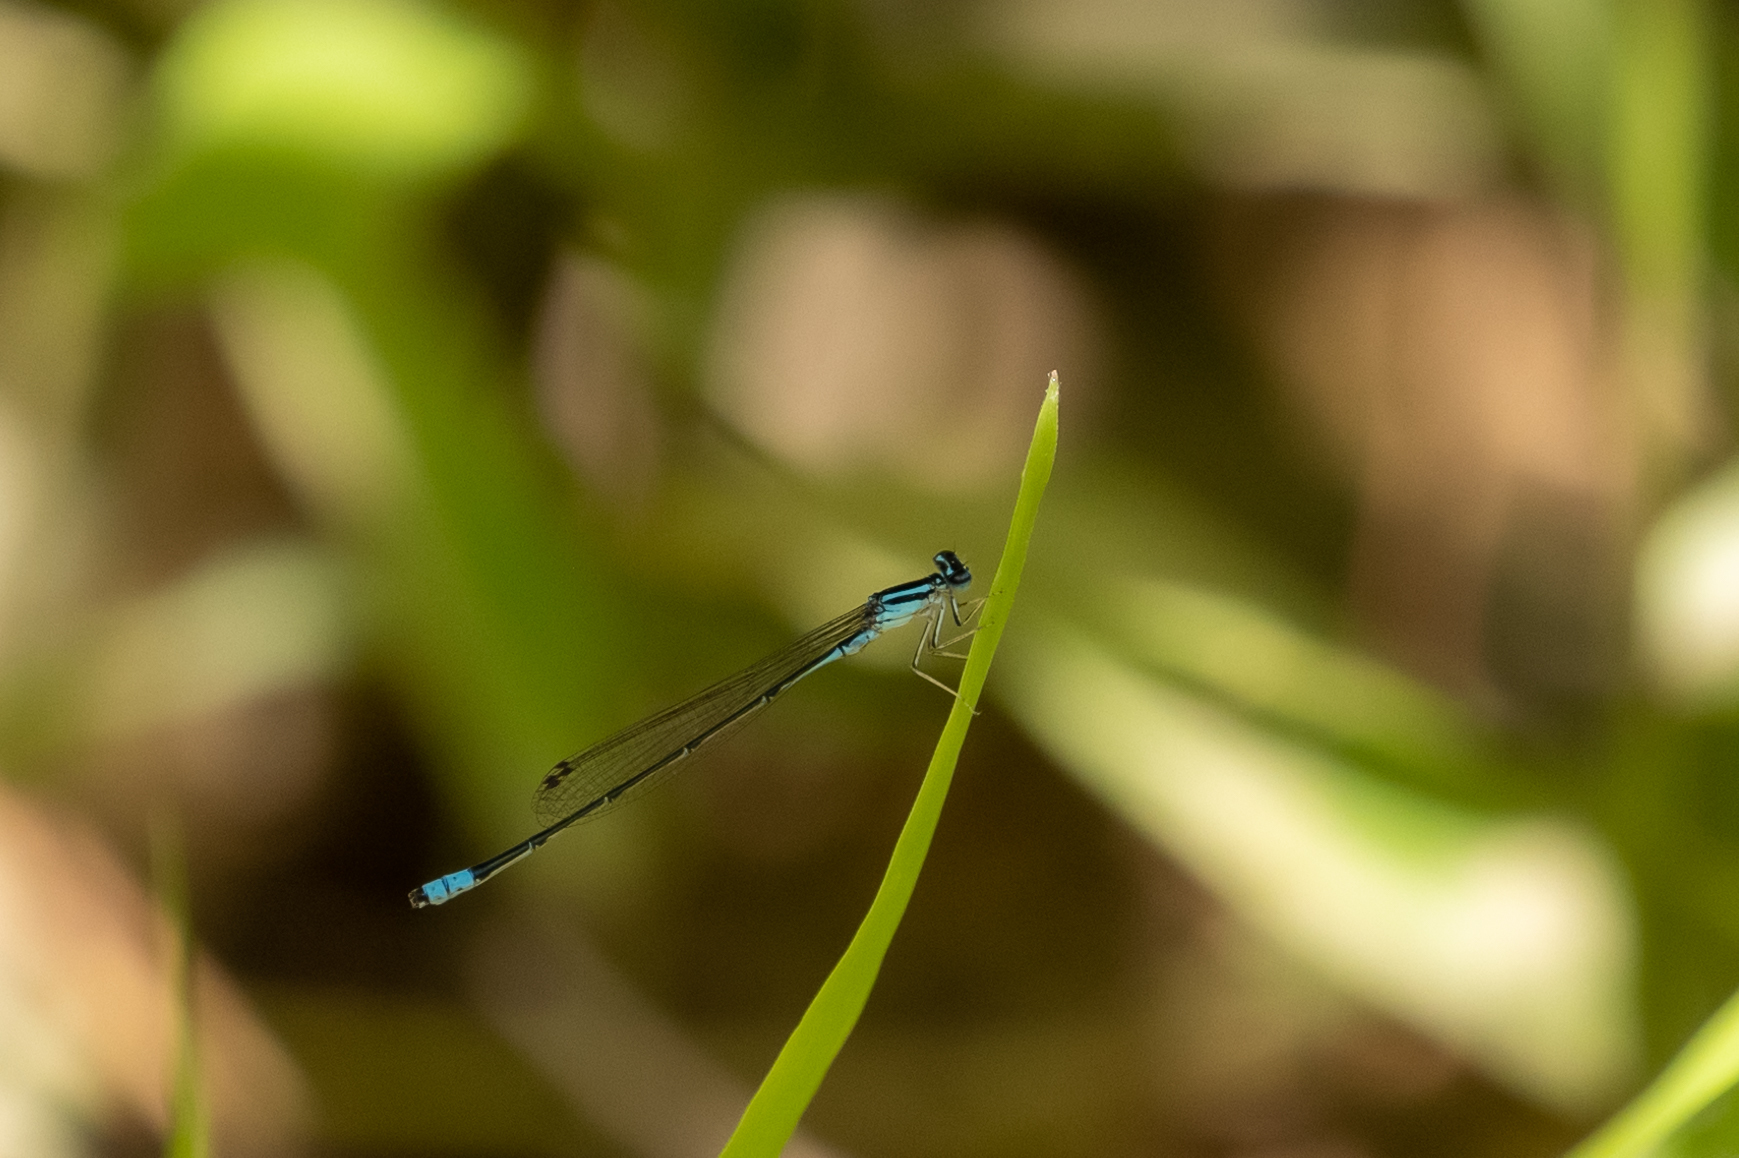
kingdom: Animalia
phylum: Arthropoda
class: Insecta
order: Odonata
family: Coenagrionidae
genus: Enallagma
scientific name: Enallagma divagans
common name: Turquoise bluet
